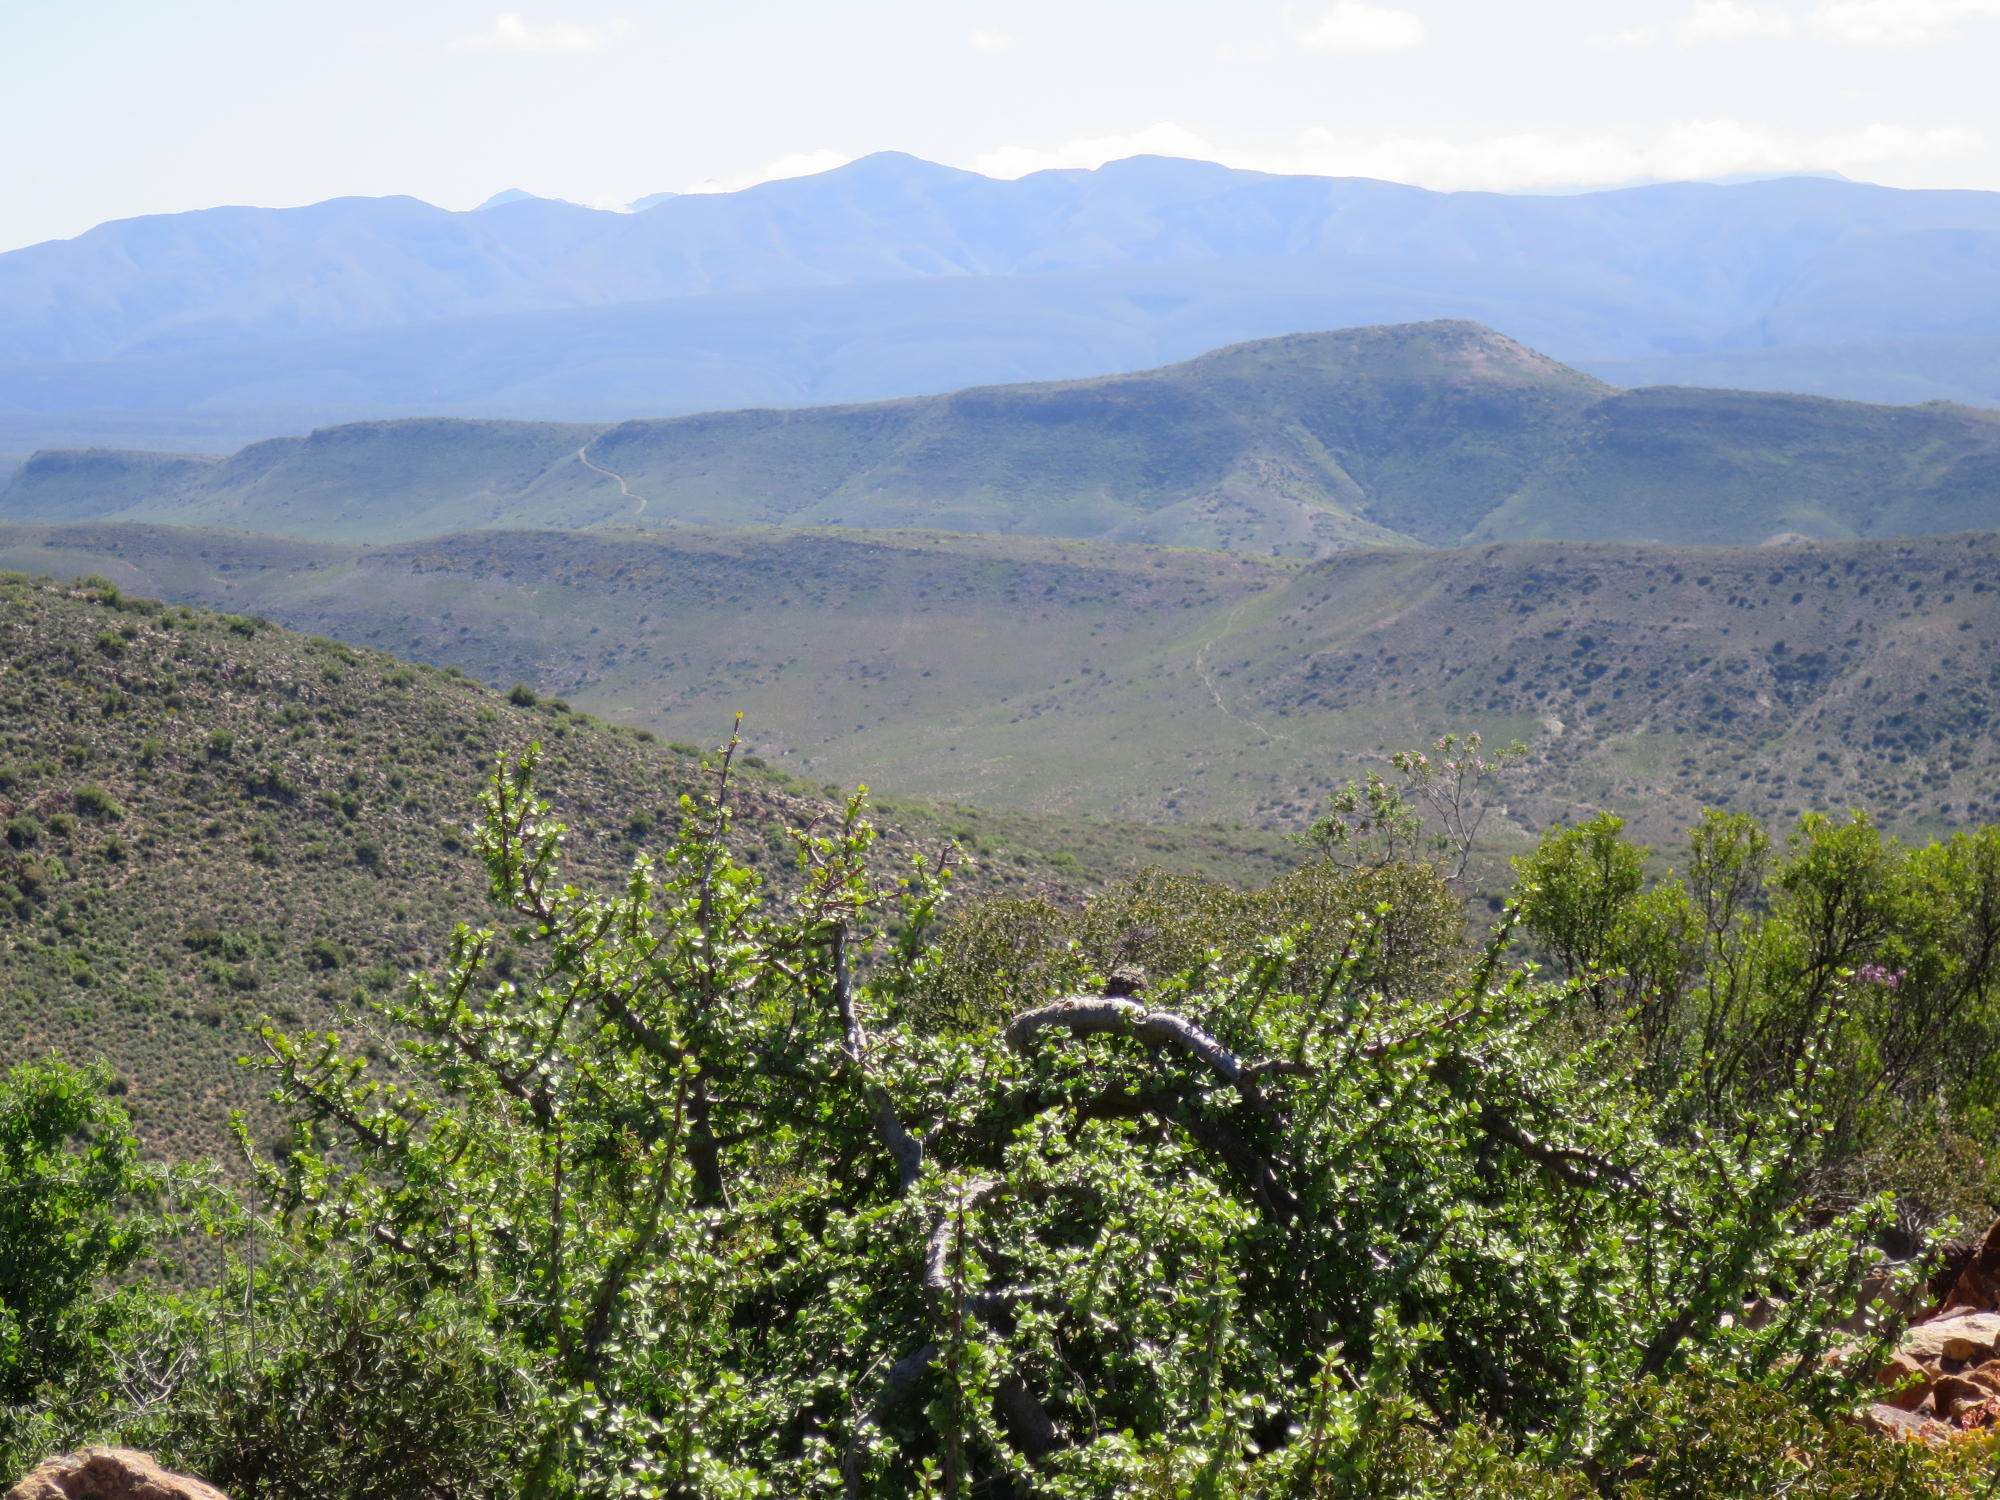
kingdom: Plantae
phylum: Tracheophyta
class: Magnoliopsida
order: Caryophyllales
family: Didiereaceae
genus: Portulacaria
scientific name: Portulacaria afra
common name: Elephant-bush
